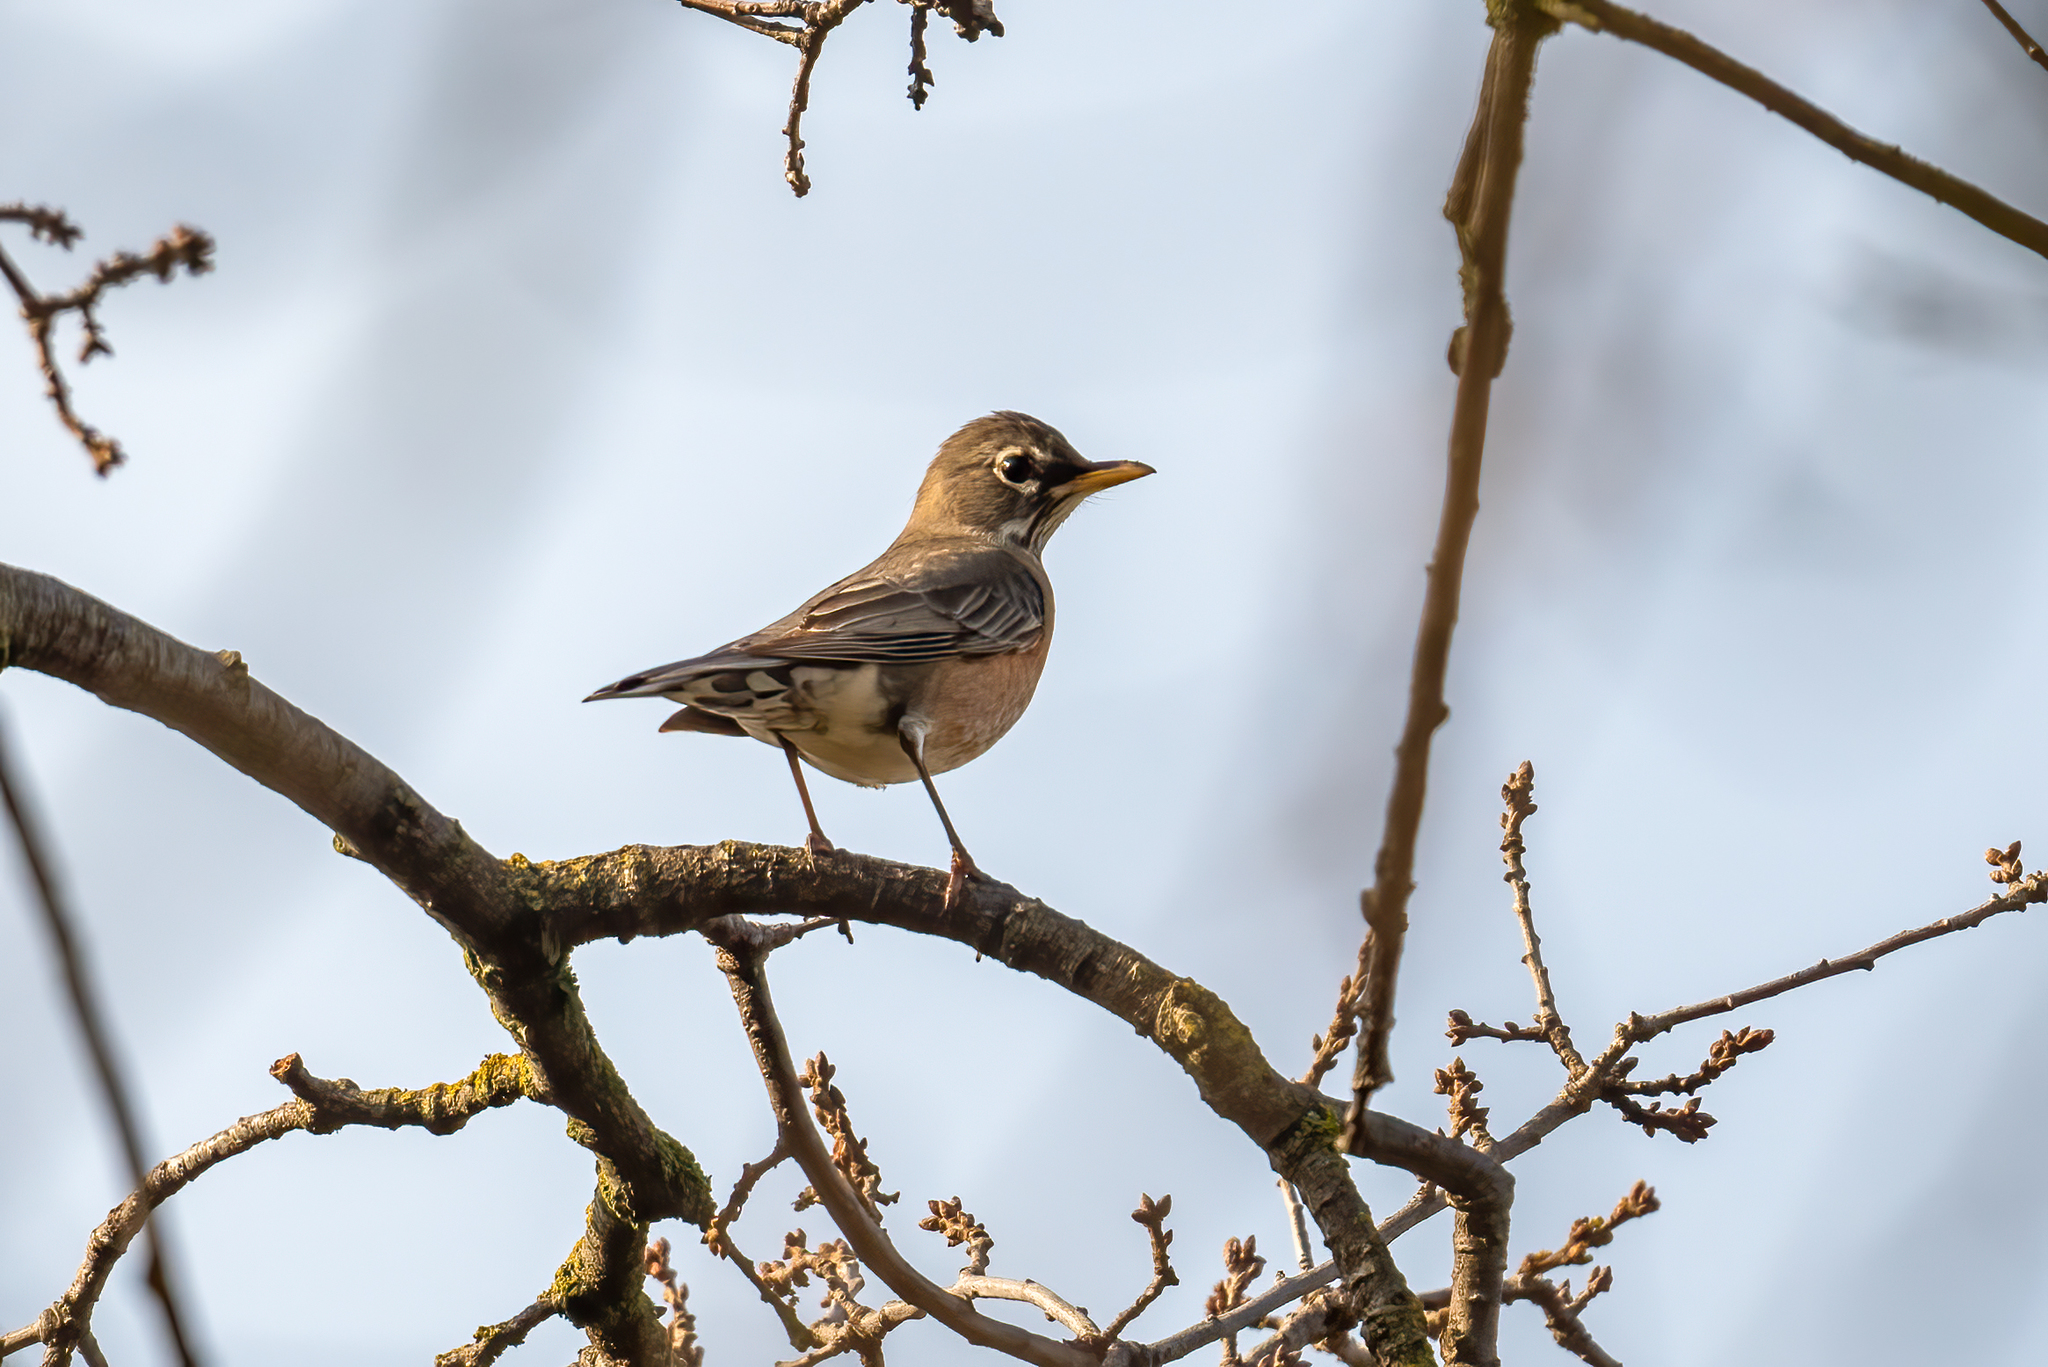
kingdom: Animalia
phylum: Chordata
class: Aves
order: Passeriformes
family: Turdidae
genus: Turdus
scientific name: Turdus migratorius
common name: American robin
